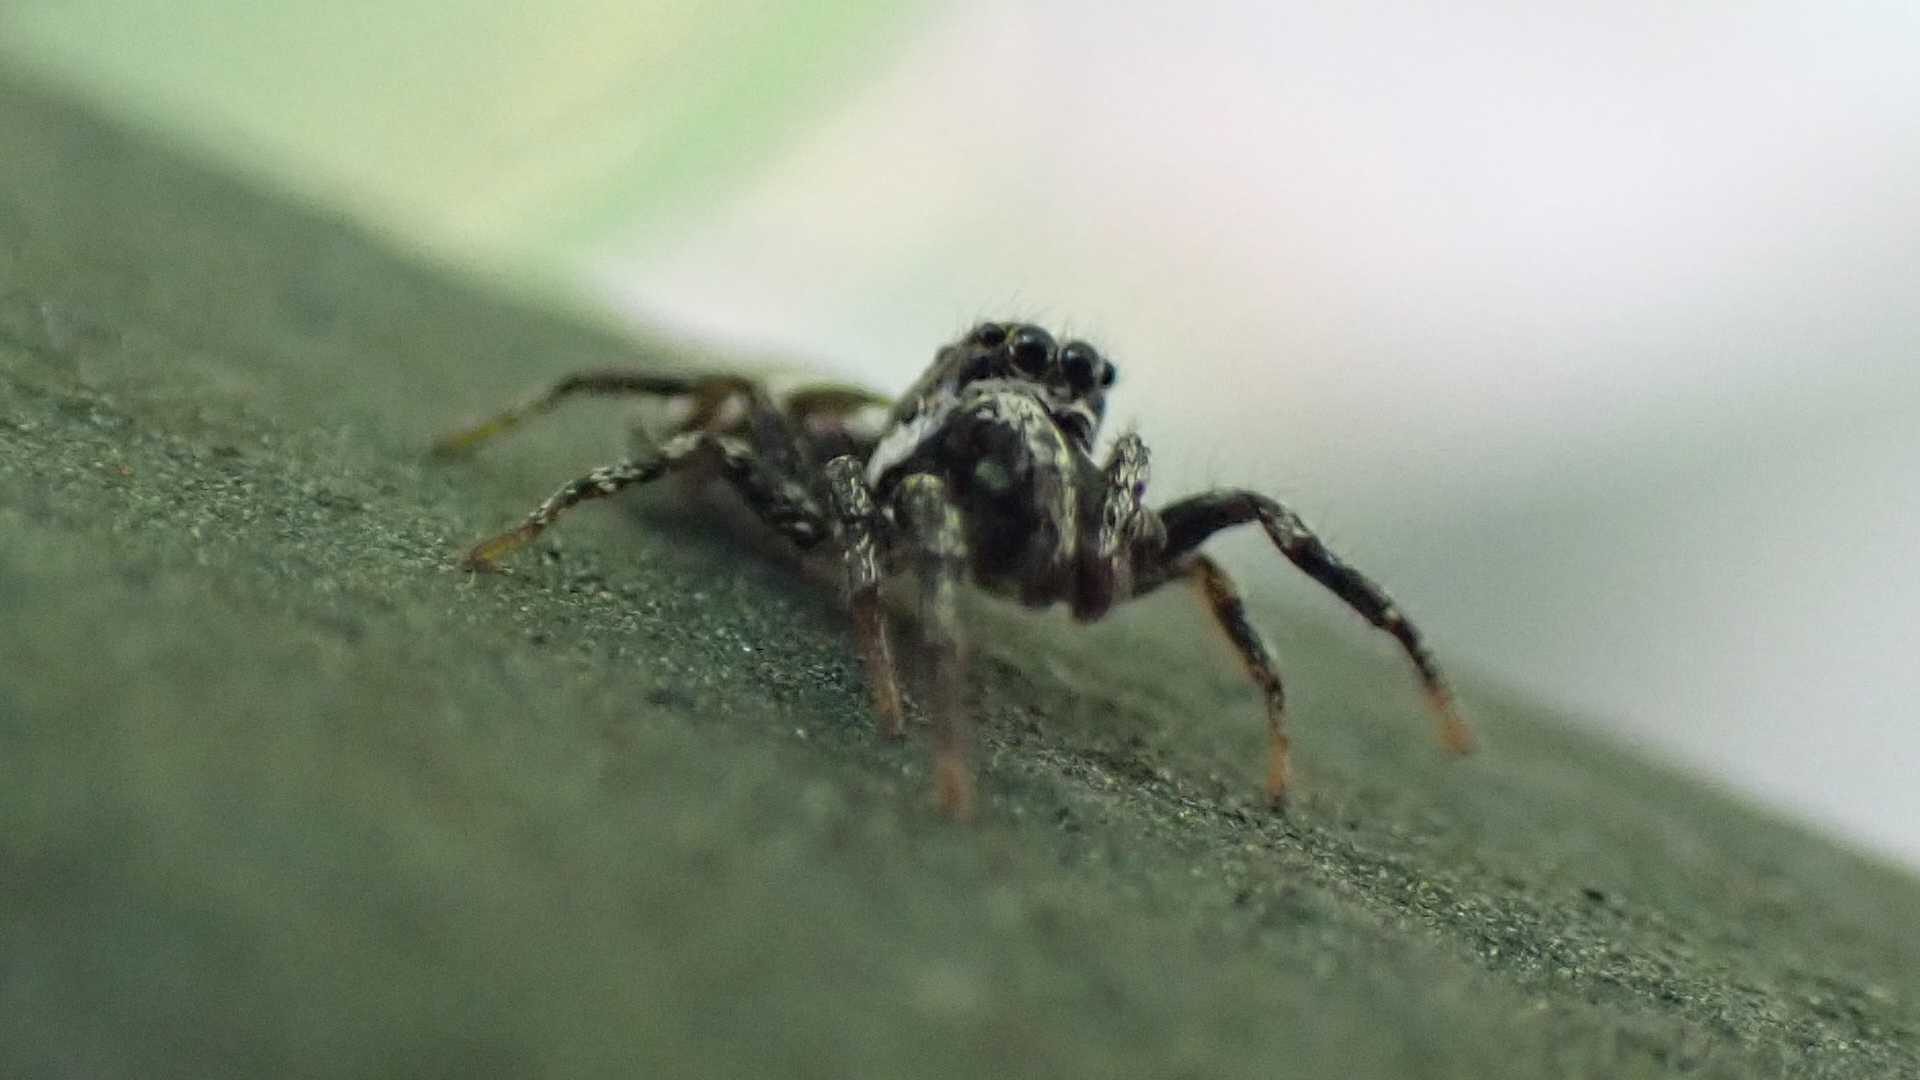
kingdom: Animalia
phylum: Arthropoda
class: Arachnida
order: Araneae
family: Salticidae
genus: Salticus
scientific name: Salticus scenicus
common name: Zebra jumper
